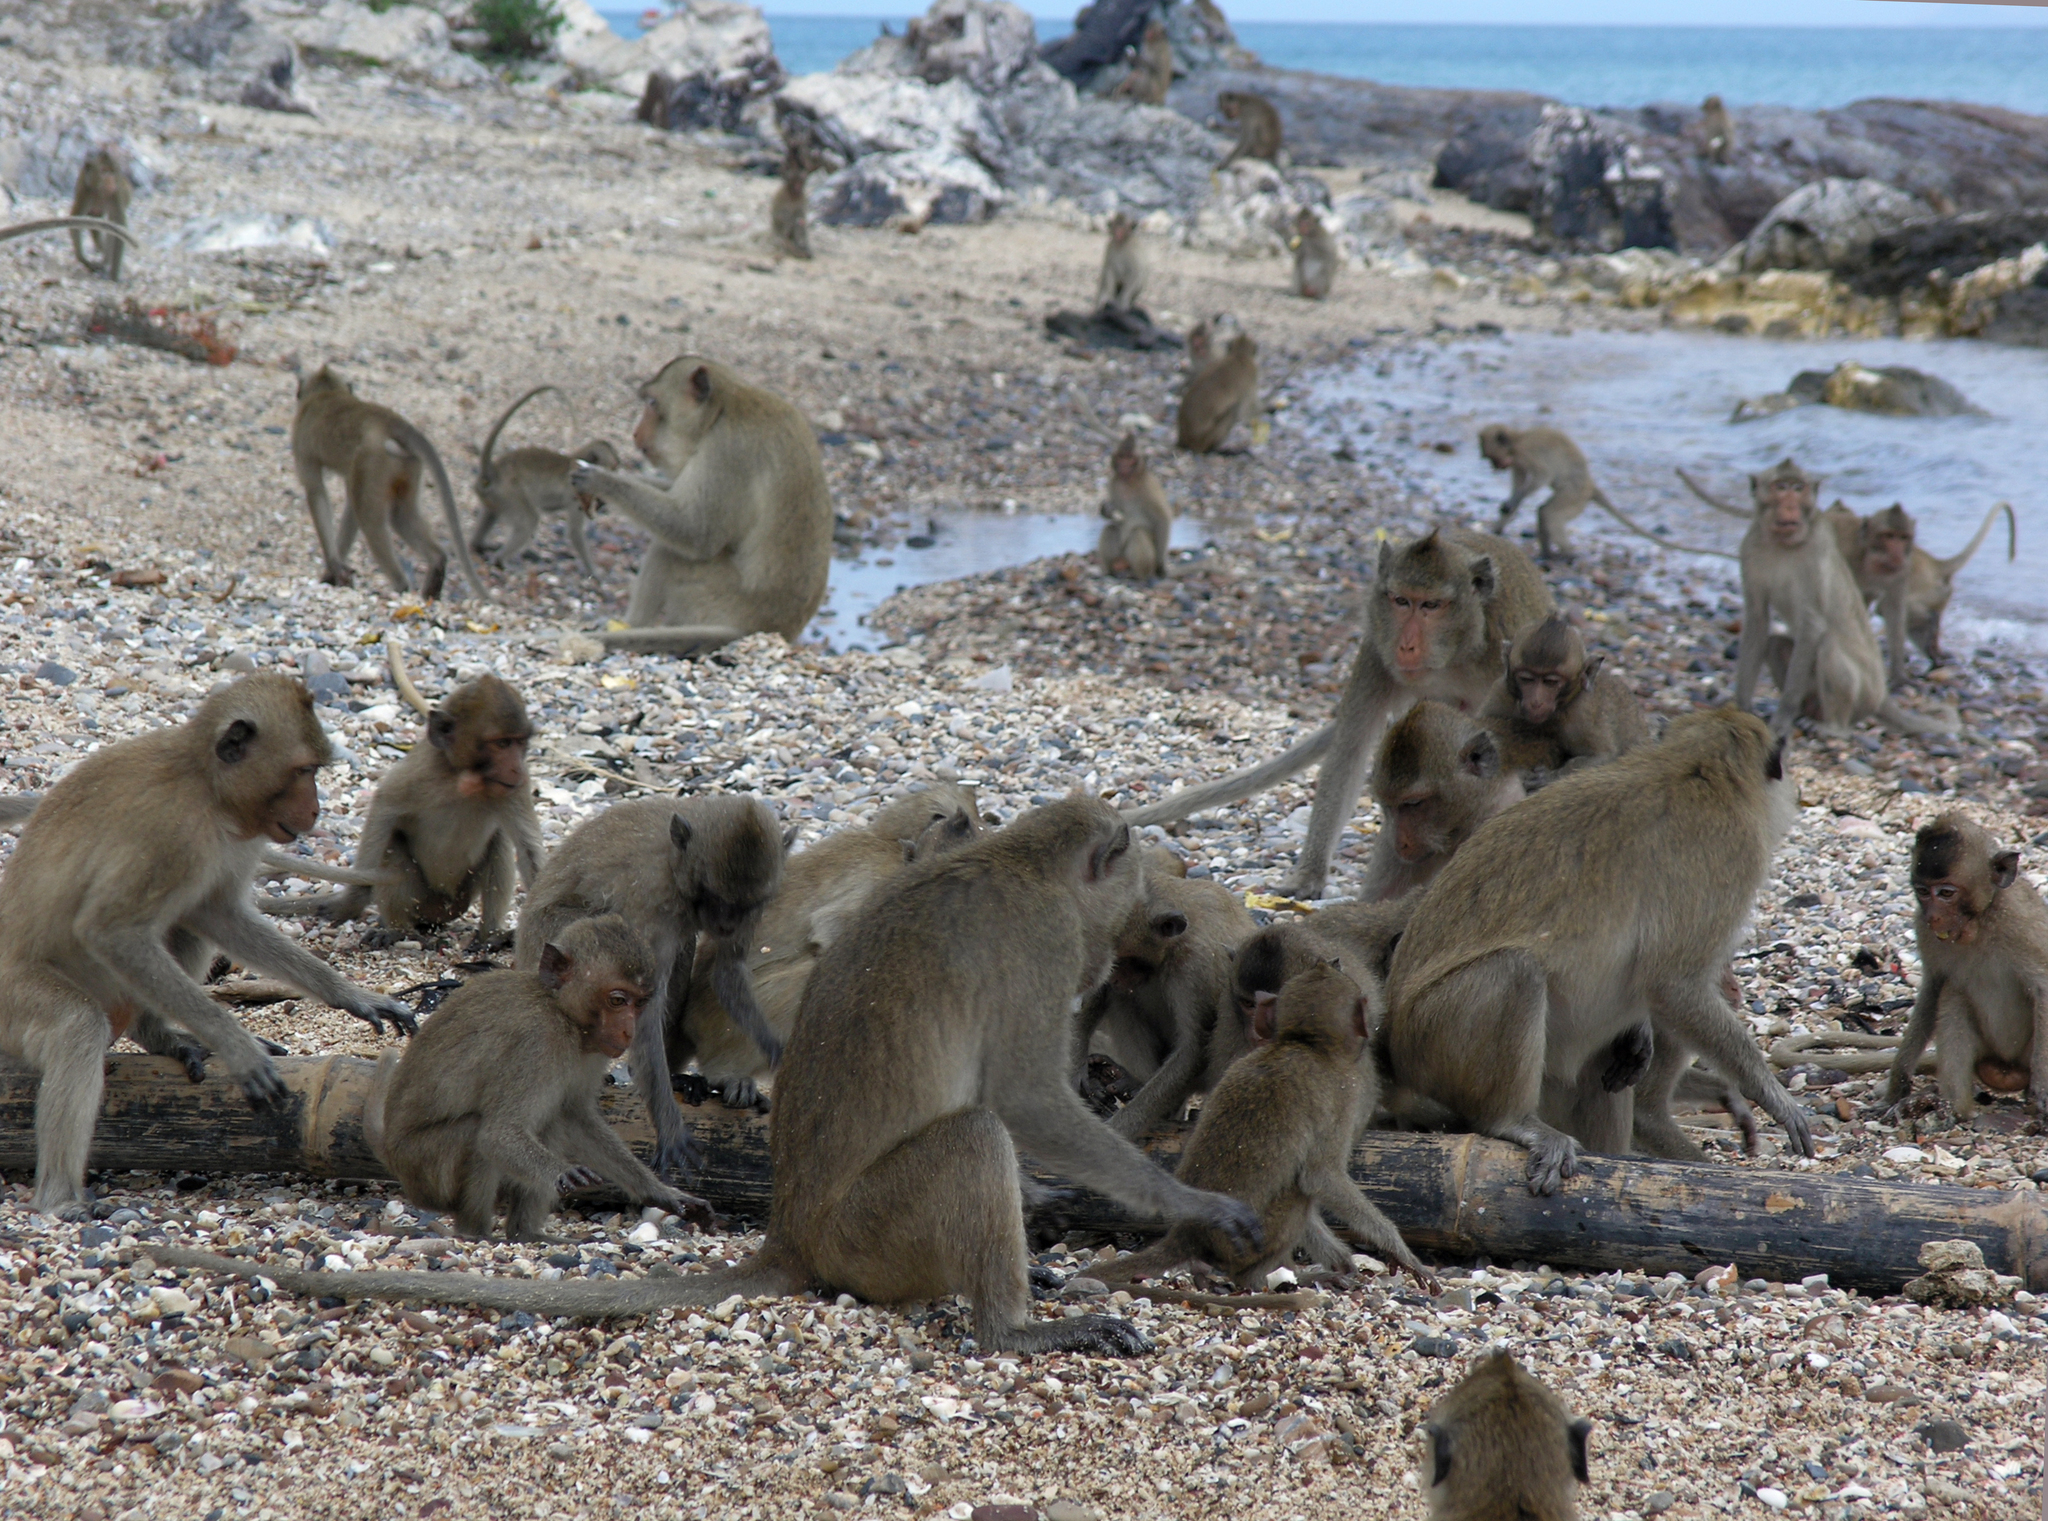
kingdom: Animalia
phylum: Chordata
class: Mammalia
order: Primates
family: Cercopithecidae
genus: Macaca
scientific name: Macaca fascicularis
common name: Crab-eating macaque
